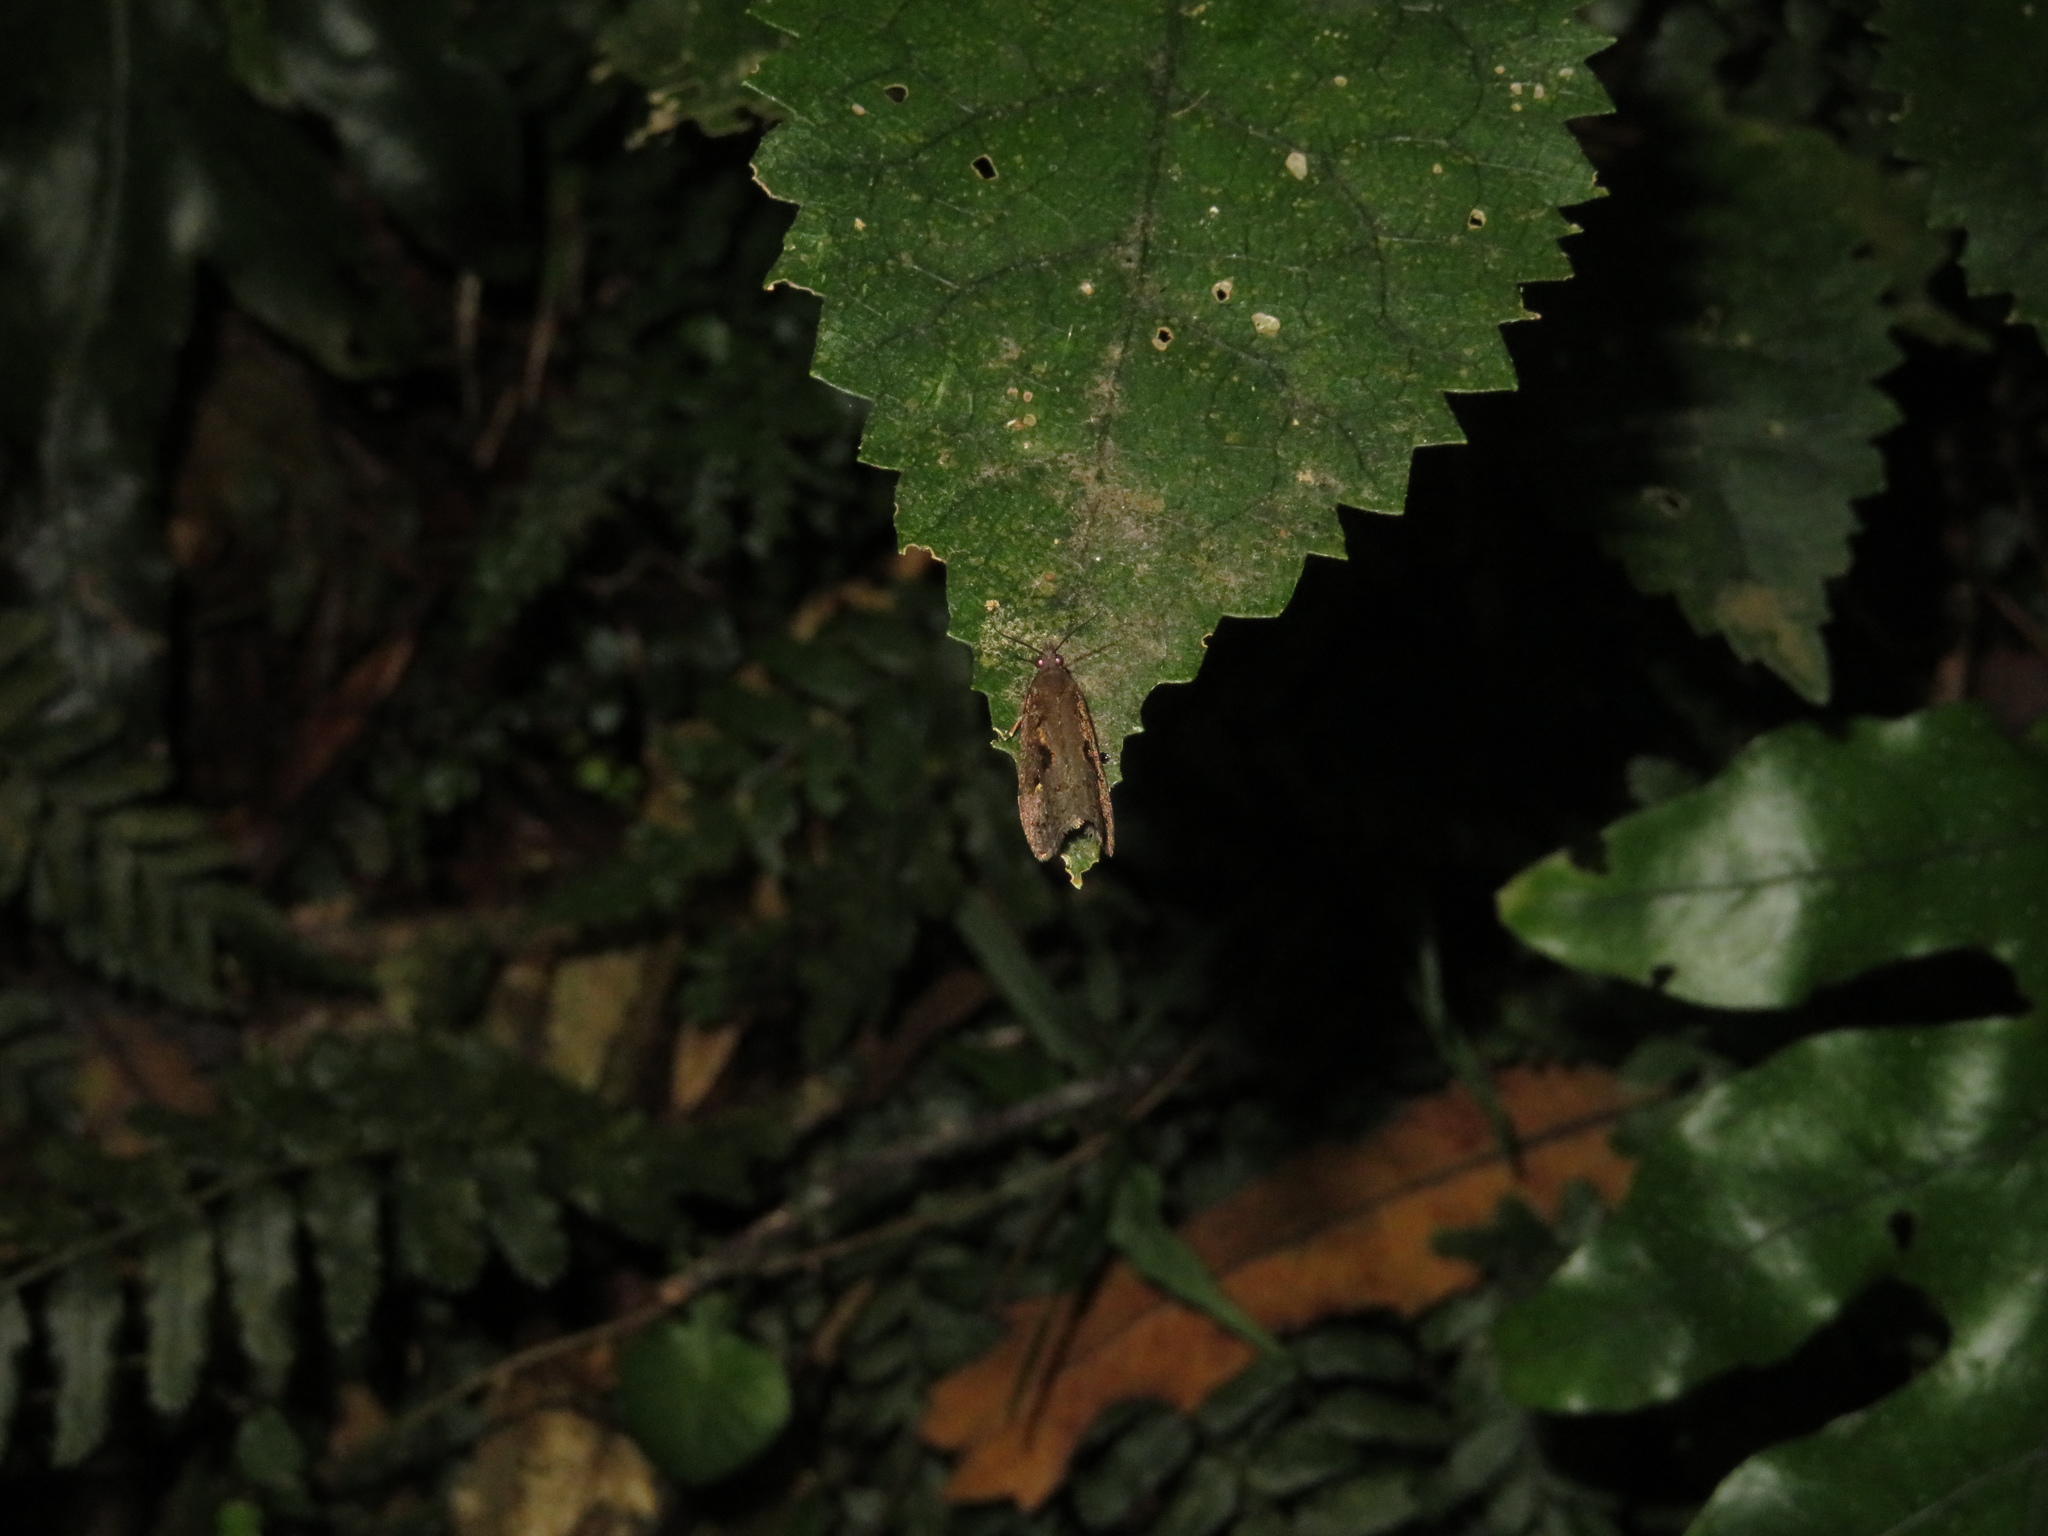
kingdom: Animalia
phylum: Arthropoda
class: Insecta
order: Lepidoptera
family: Tortricidae
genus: Cryptaspasma
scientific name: Cryptaspasma querula
